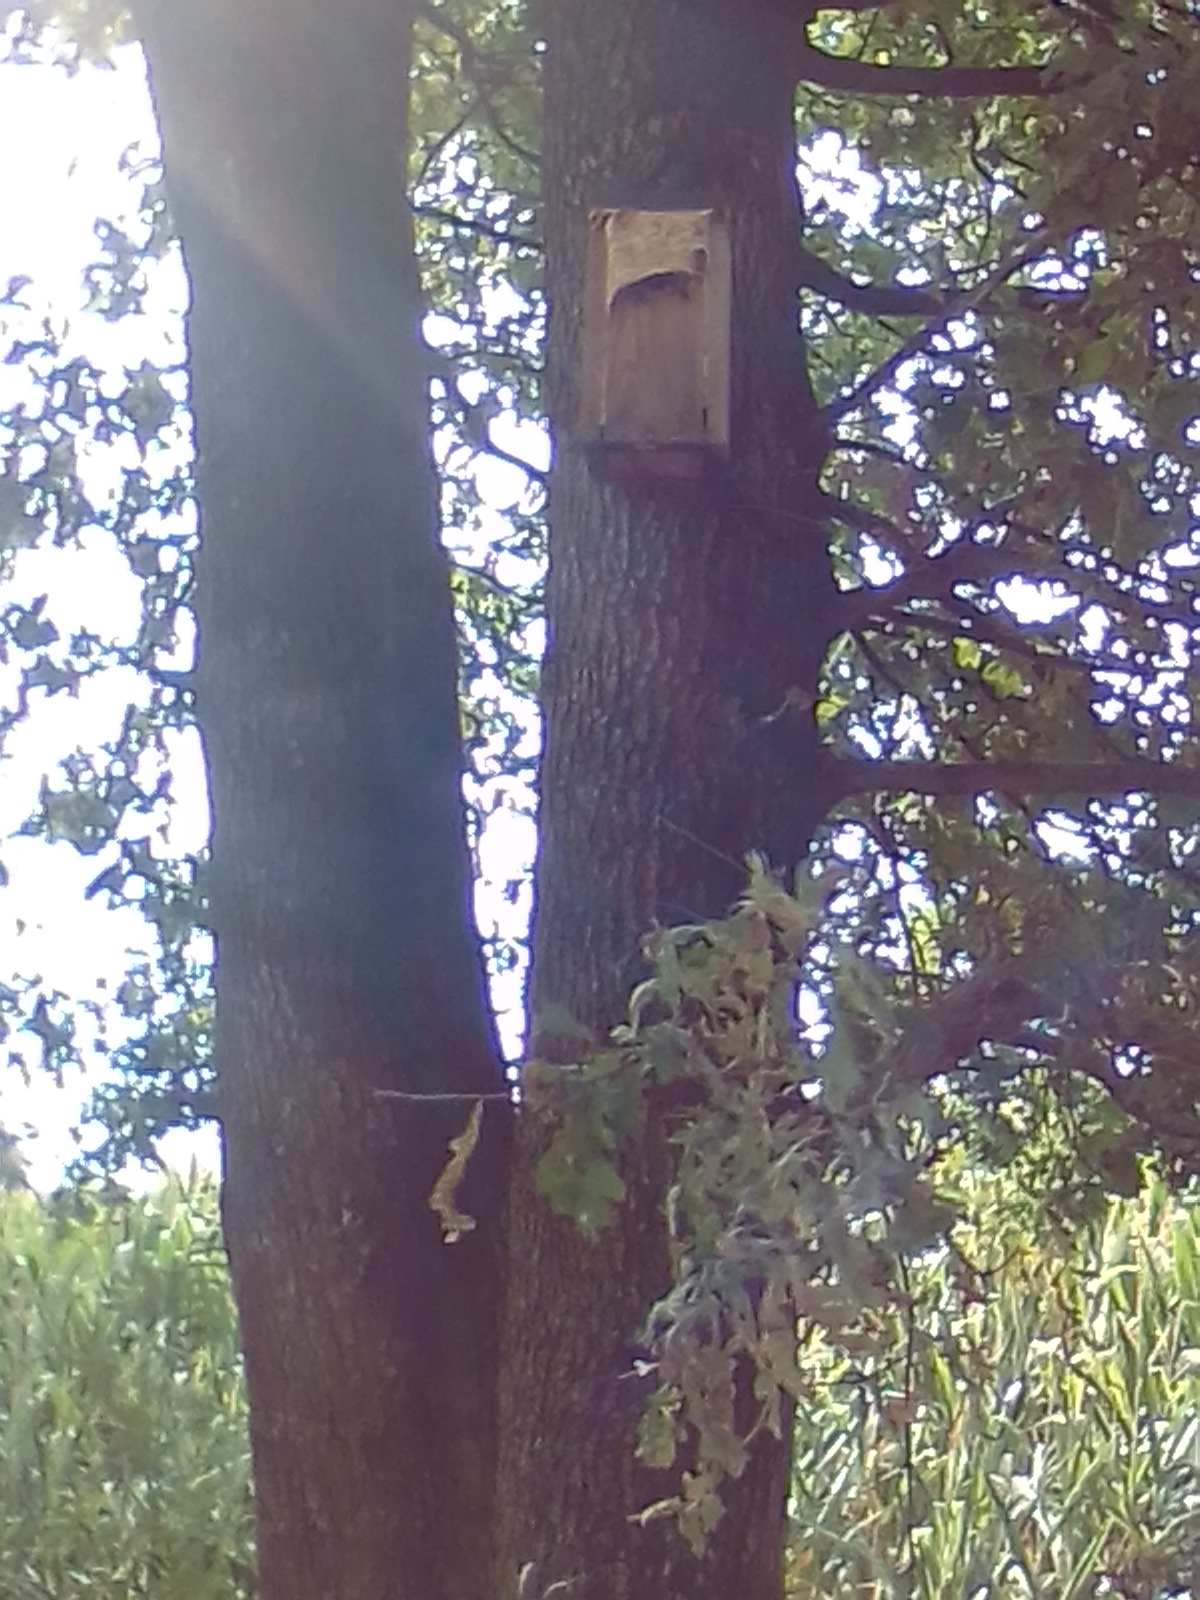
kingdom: Animalia
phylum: Arthropoda
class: Insecta
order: Hymenoptera
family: Vespidae
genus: Vespa
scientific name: Vespa crabro
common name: Hornet
